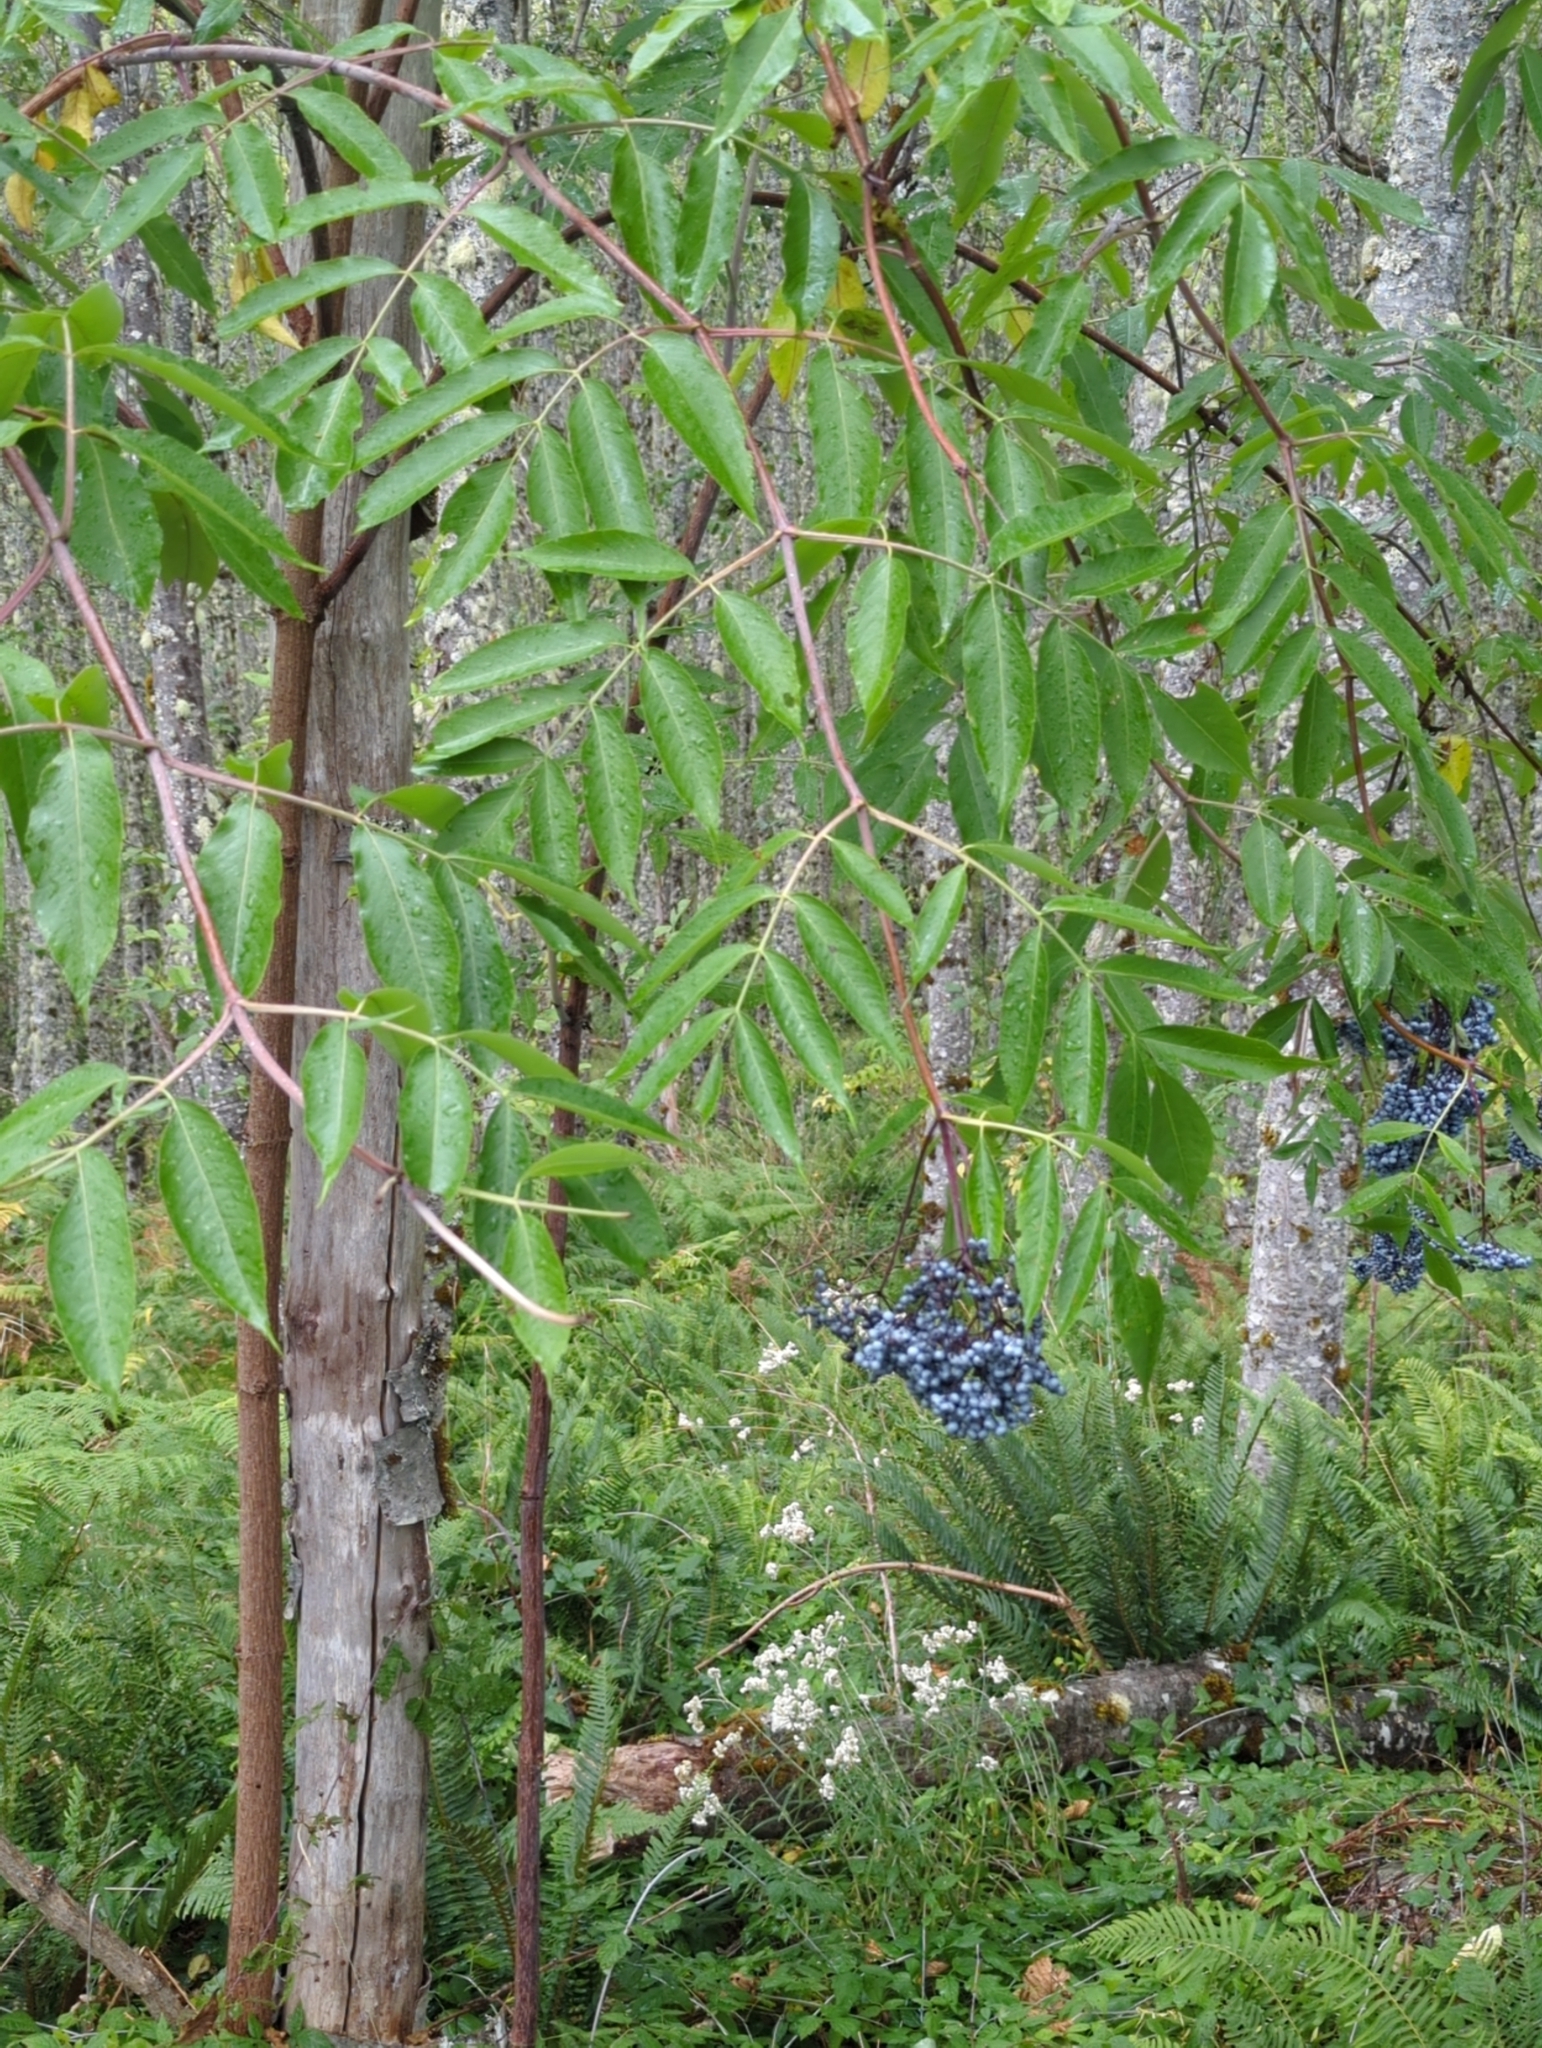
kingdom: Plantae
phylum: Tracheophyta
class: Magnoliopsida
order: Dipsacales
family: Viburnaceae
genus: Sambucus
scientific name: Sambucus cerulea
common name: Blue elder
